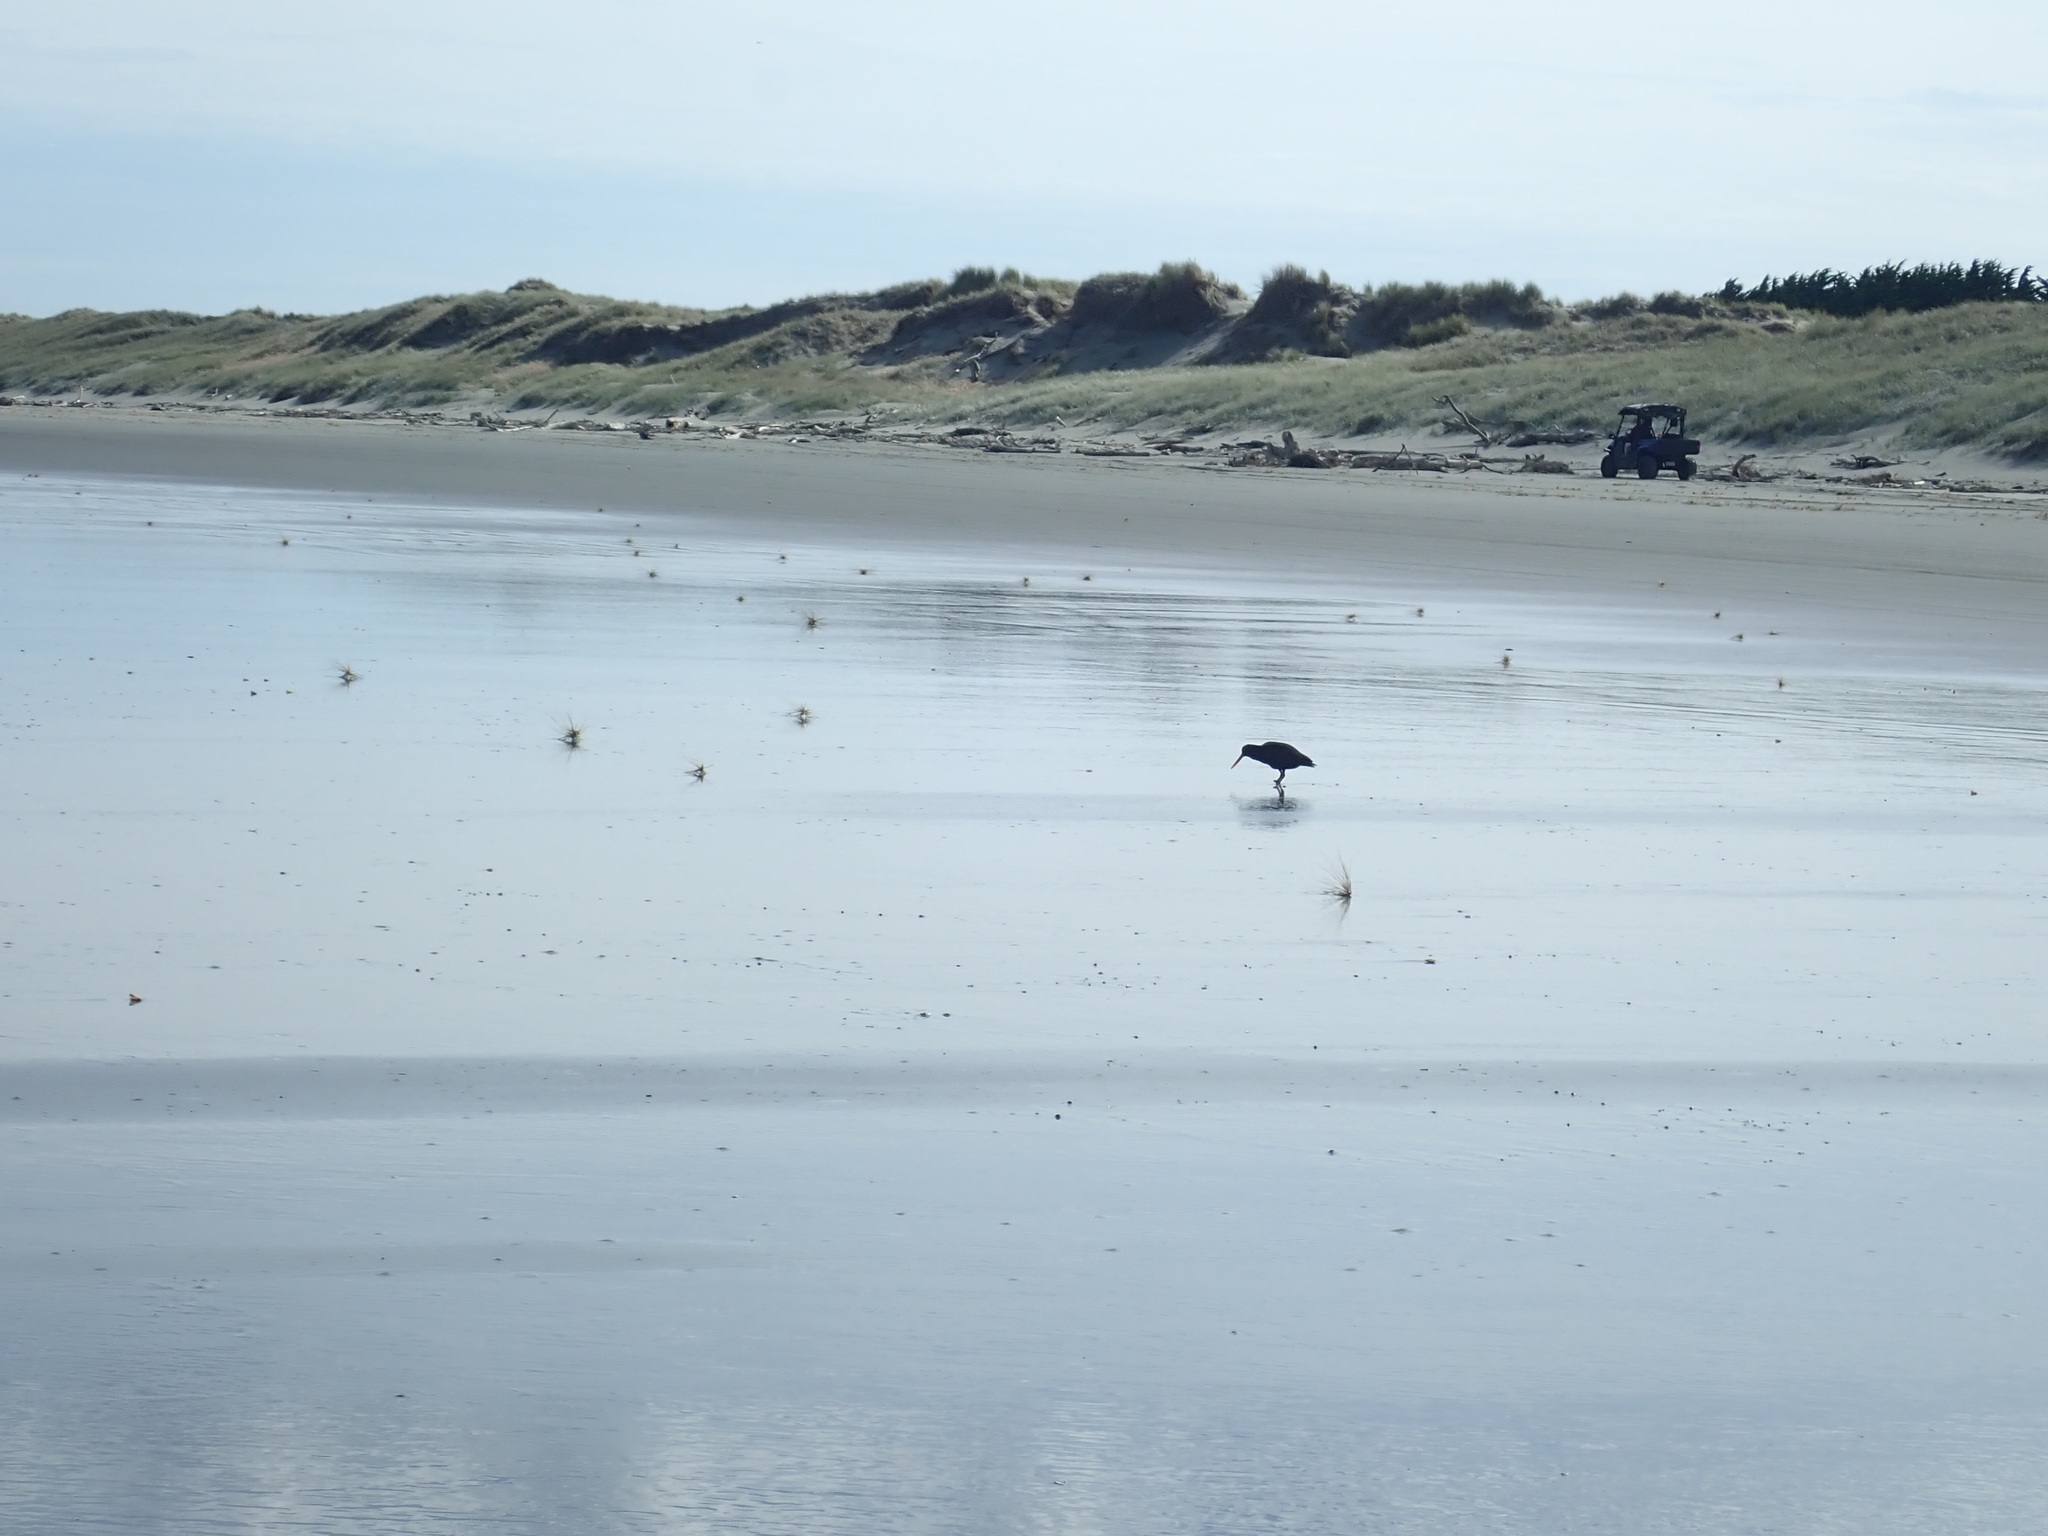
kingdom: Animalia
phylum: Chordata
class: Aves
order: Charadriiformes
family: Haematopodidae
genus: Haematopus
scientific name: Haematopus unicolor
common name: Variable oystercatcher
